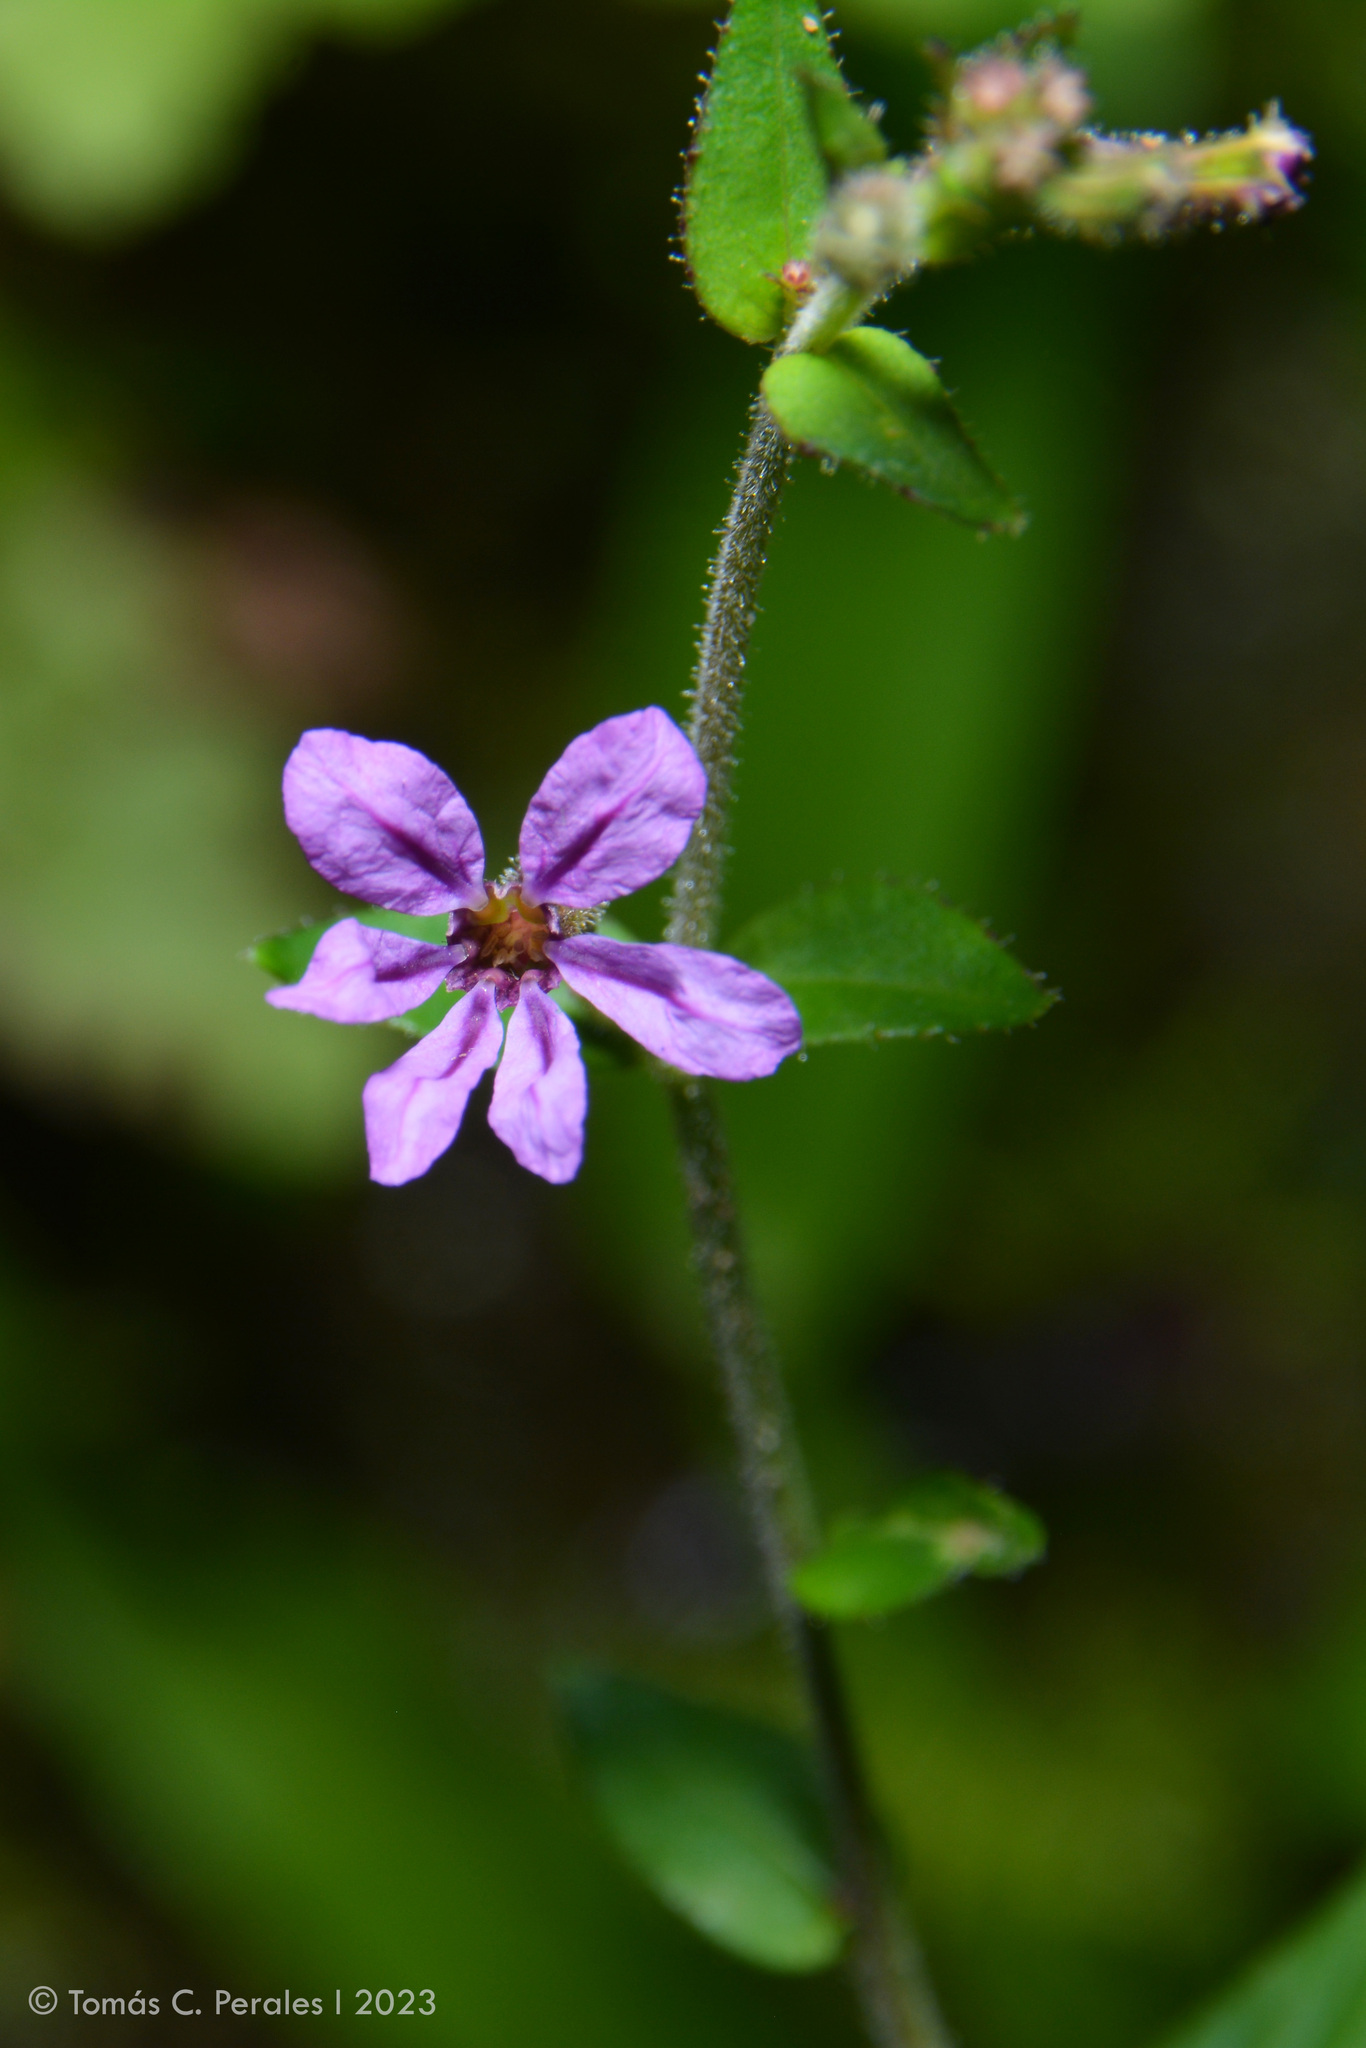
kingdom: Plantae
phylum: Tracheophyta
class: Magnoliopsida
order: Myrtales
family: Lythraceae
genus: Cuphea
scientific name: Cuphea calophylla
